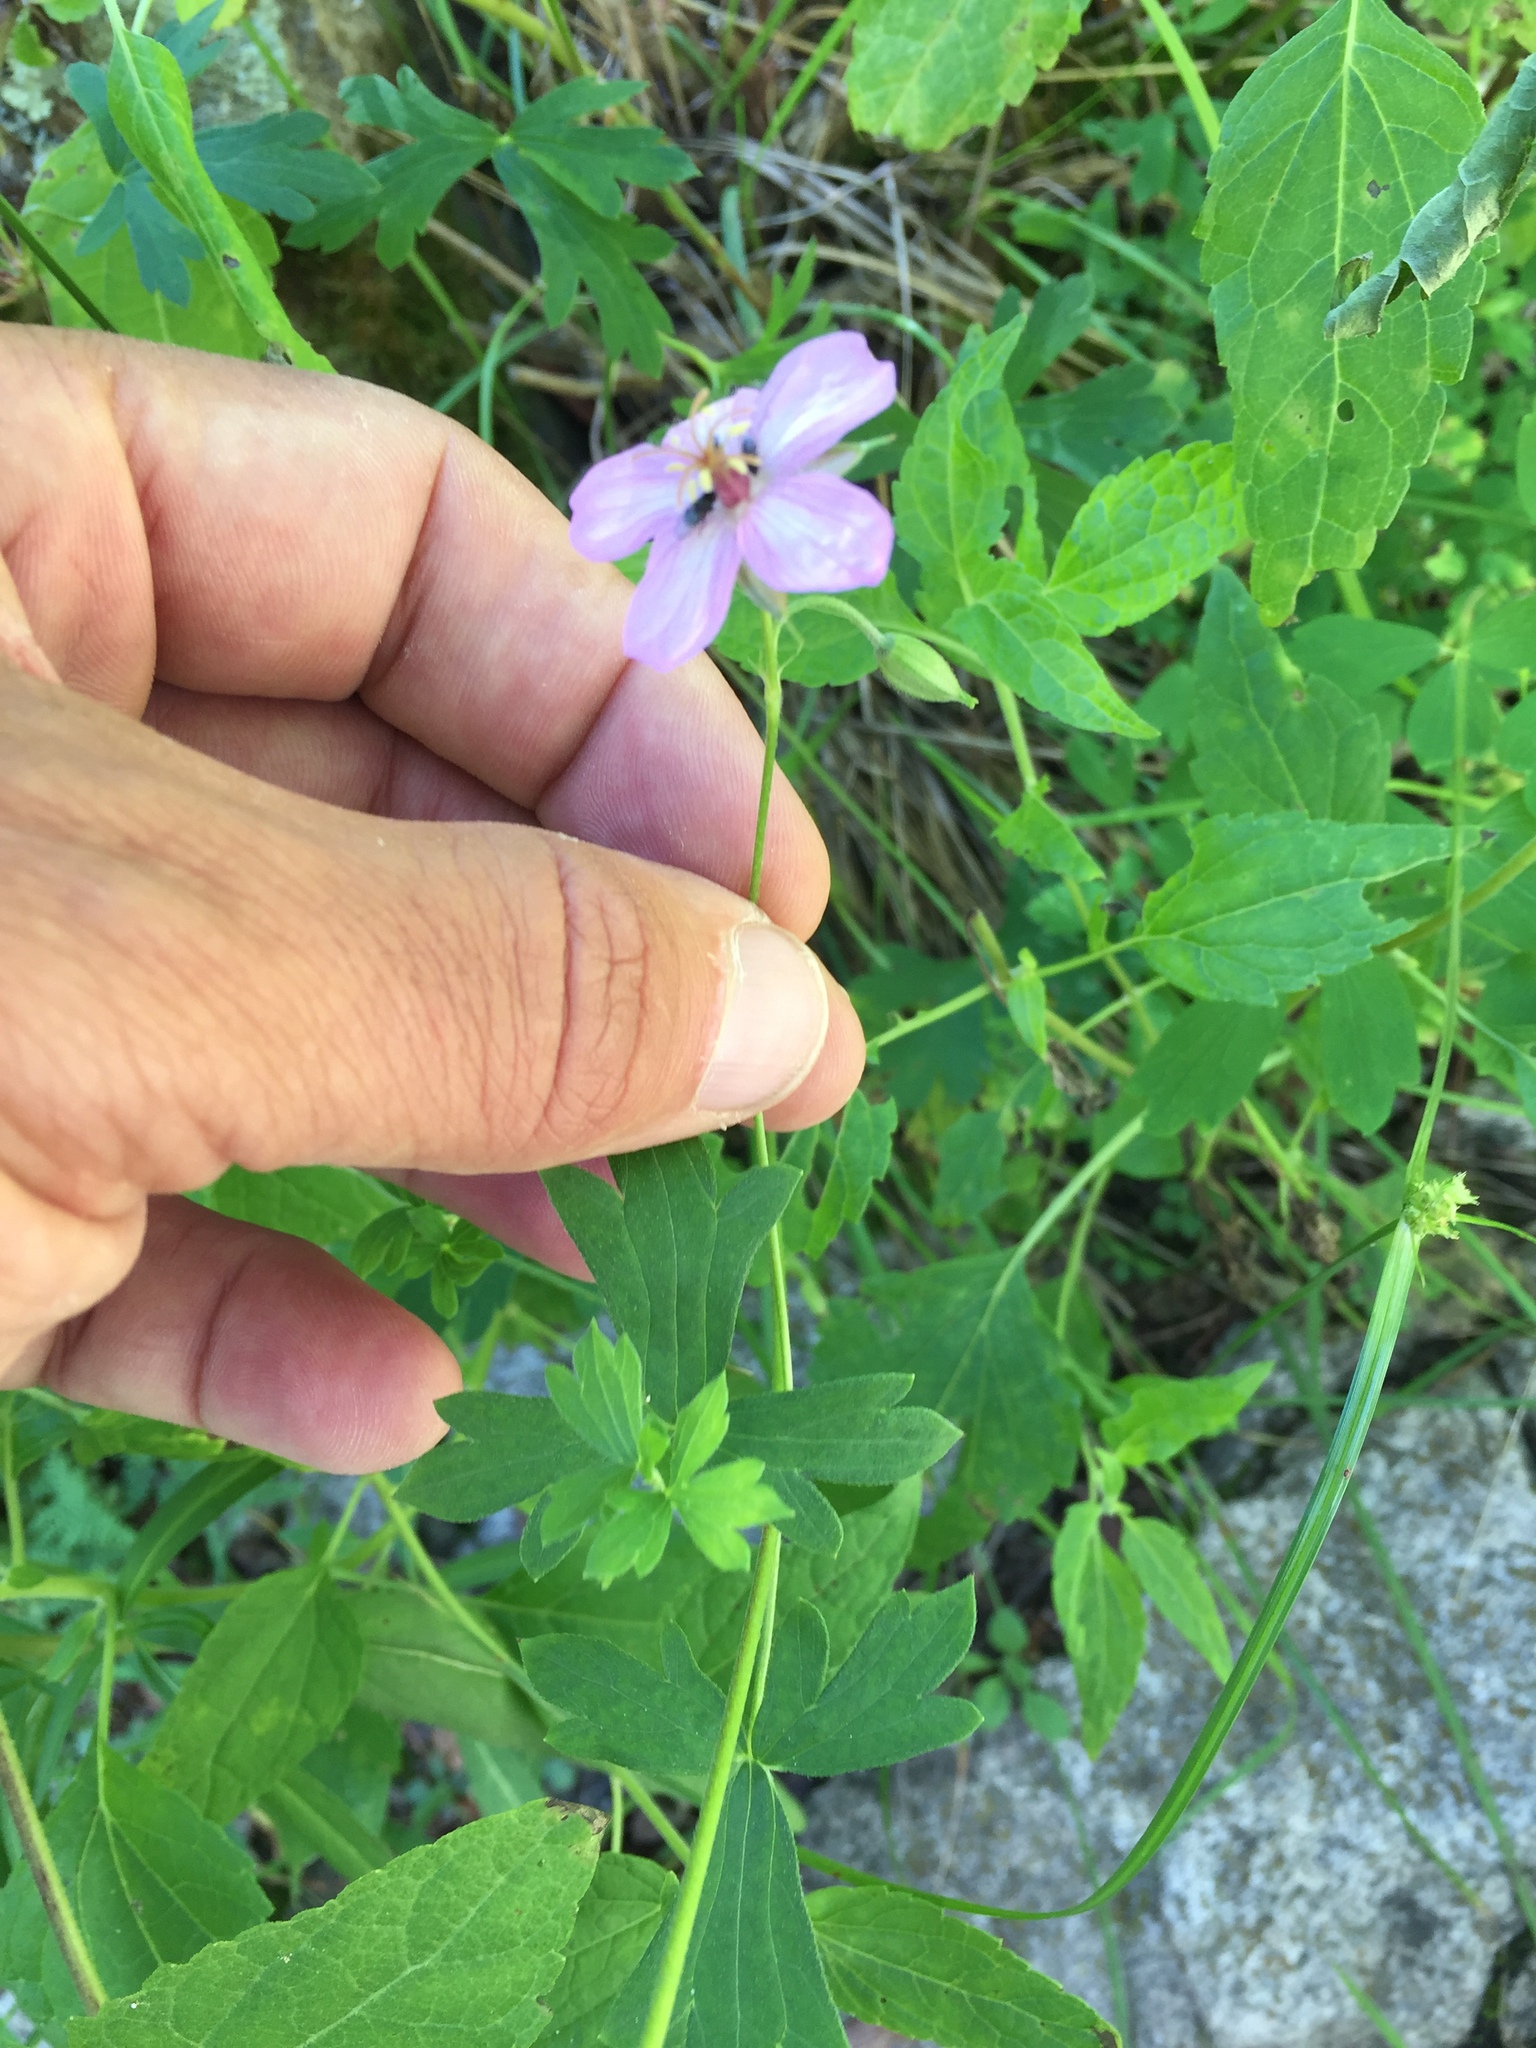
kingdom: Plantae
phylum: Tracheophyta
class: Magnoliopsida
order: Geraniales
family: Geraniaceae
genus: Geranium
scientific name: Geranium caespitosum
